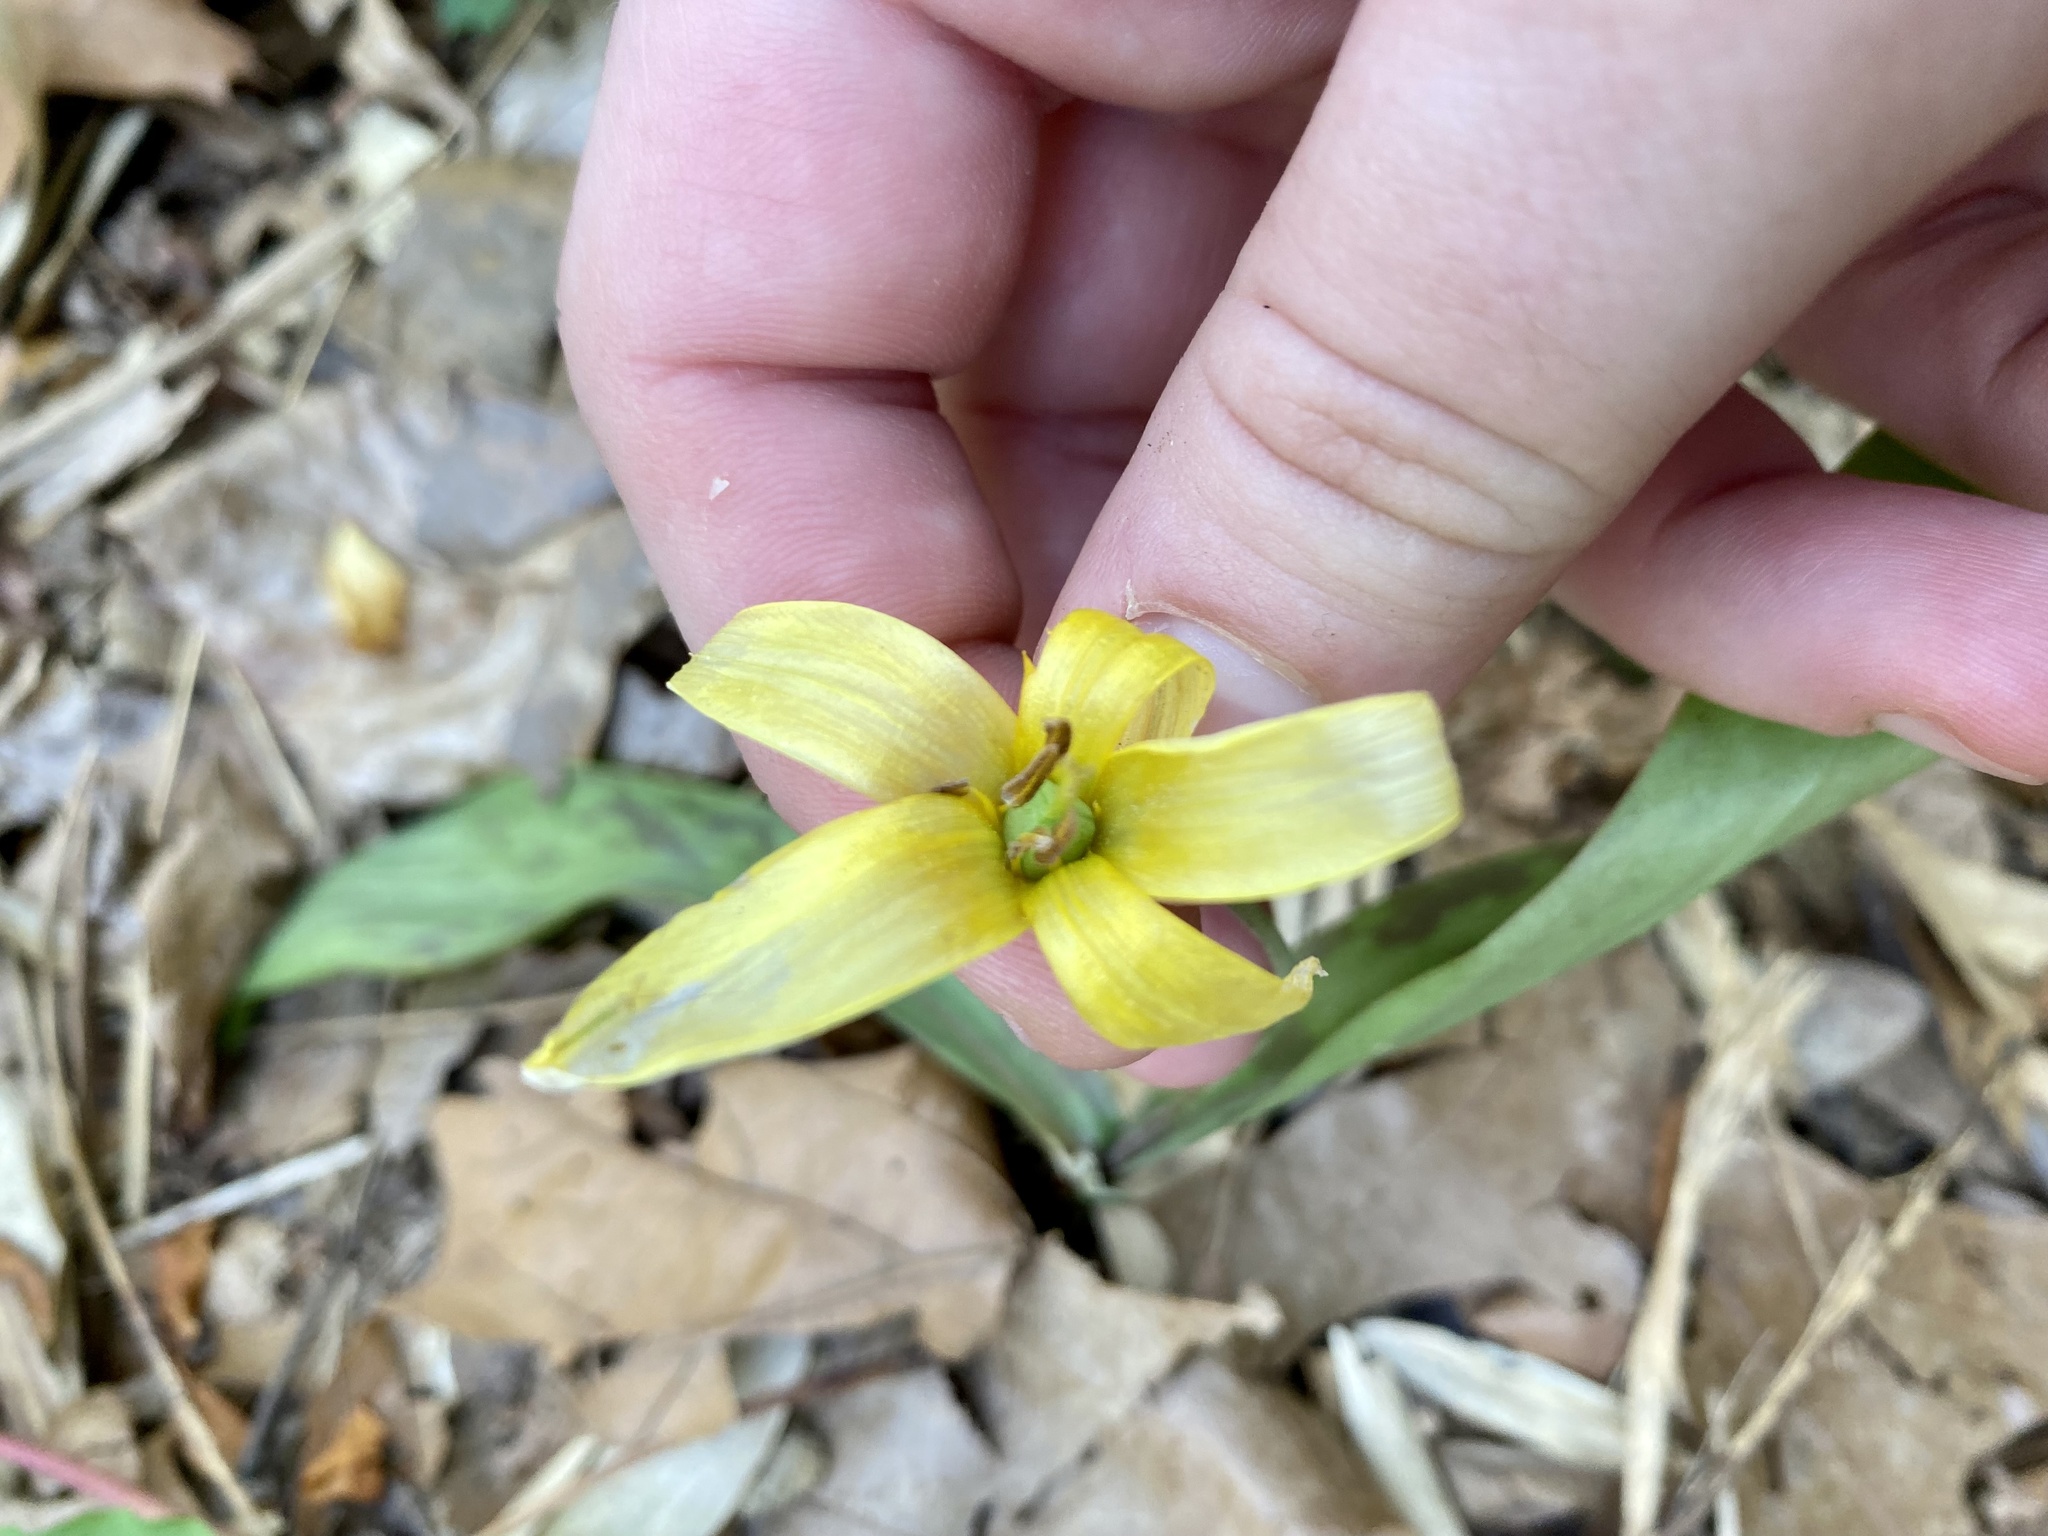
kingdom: Plantae
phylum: Tracheophyta
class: Liliopsida
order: Liliales
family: Liliaceae
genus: Erythronium
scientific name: Erythronium americanum
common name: Yellow adder's-tongue
